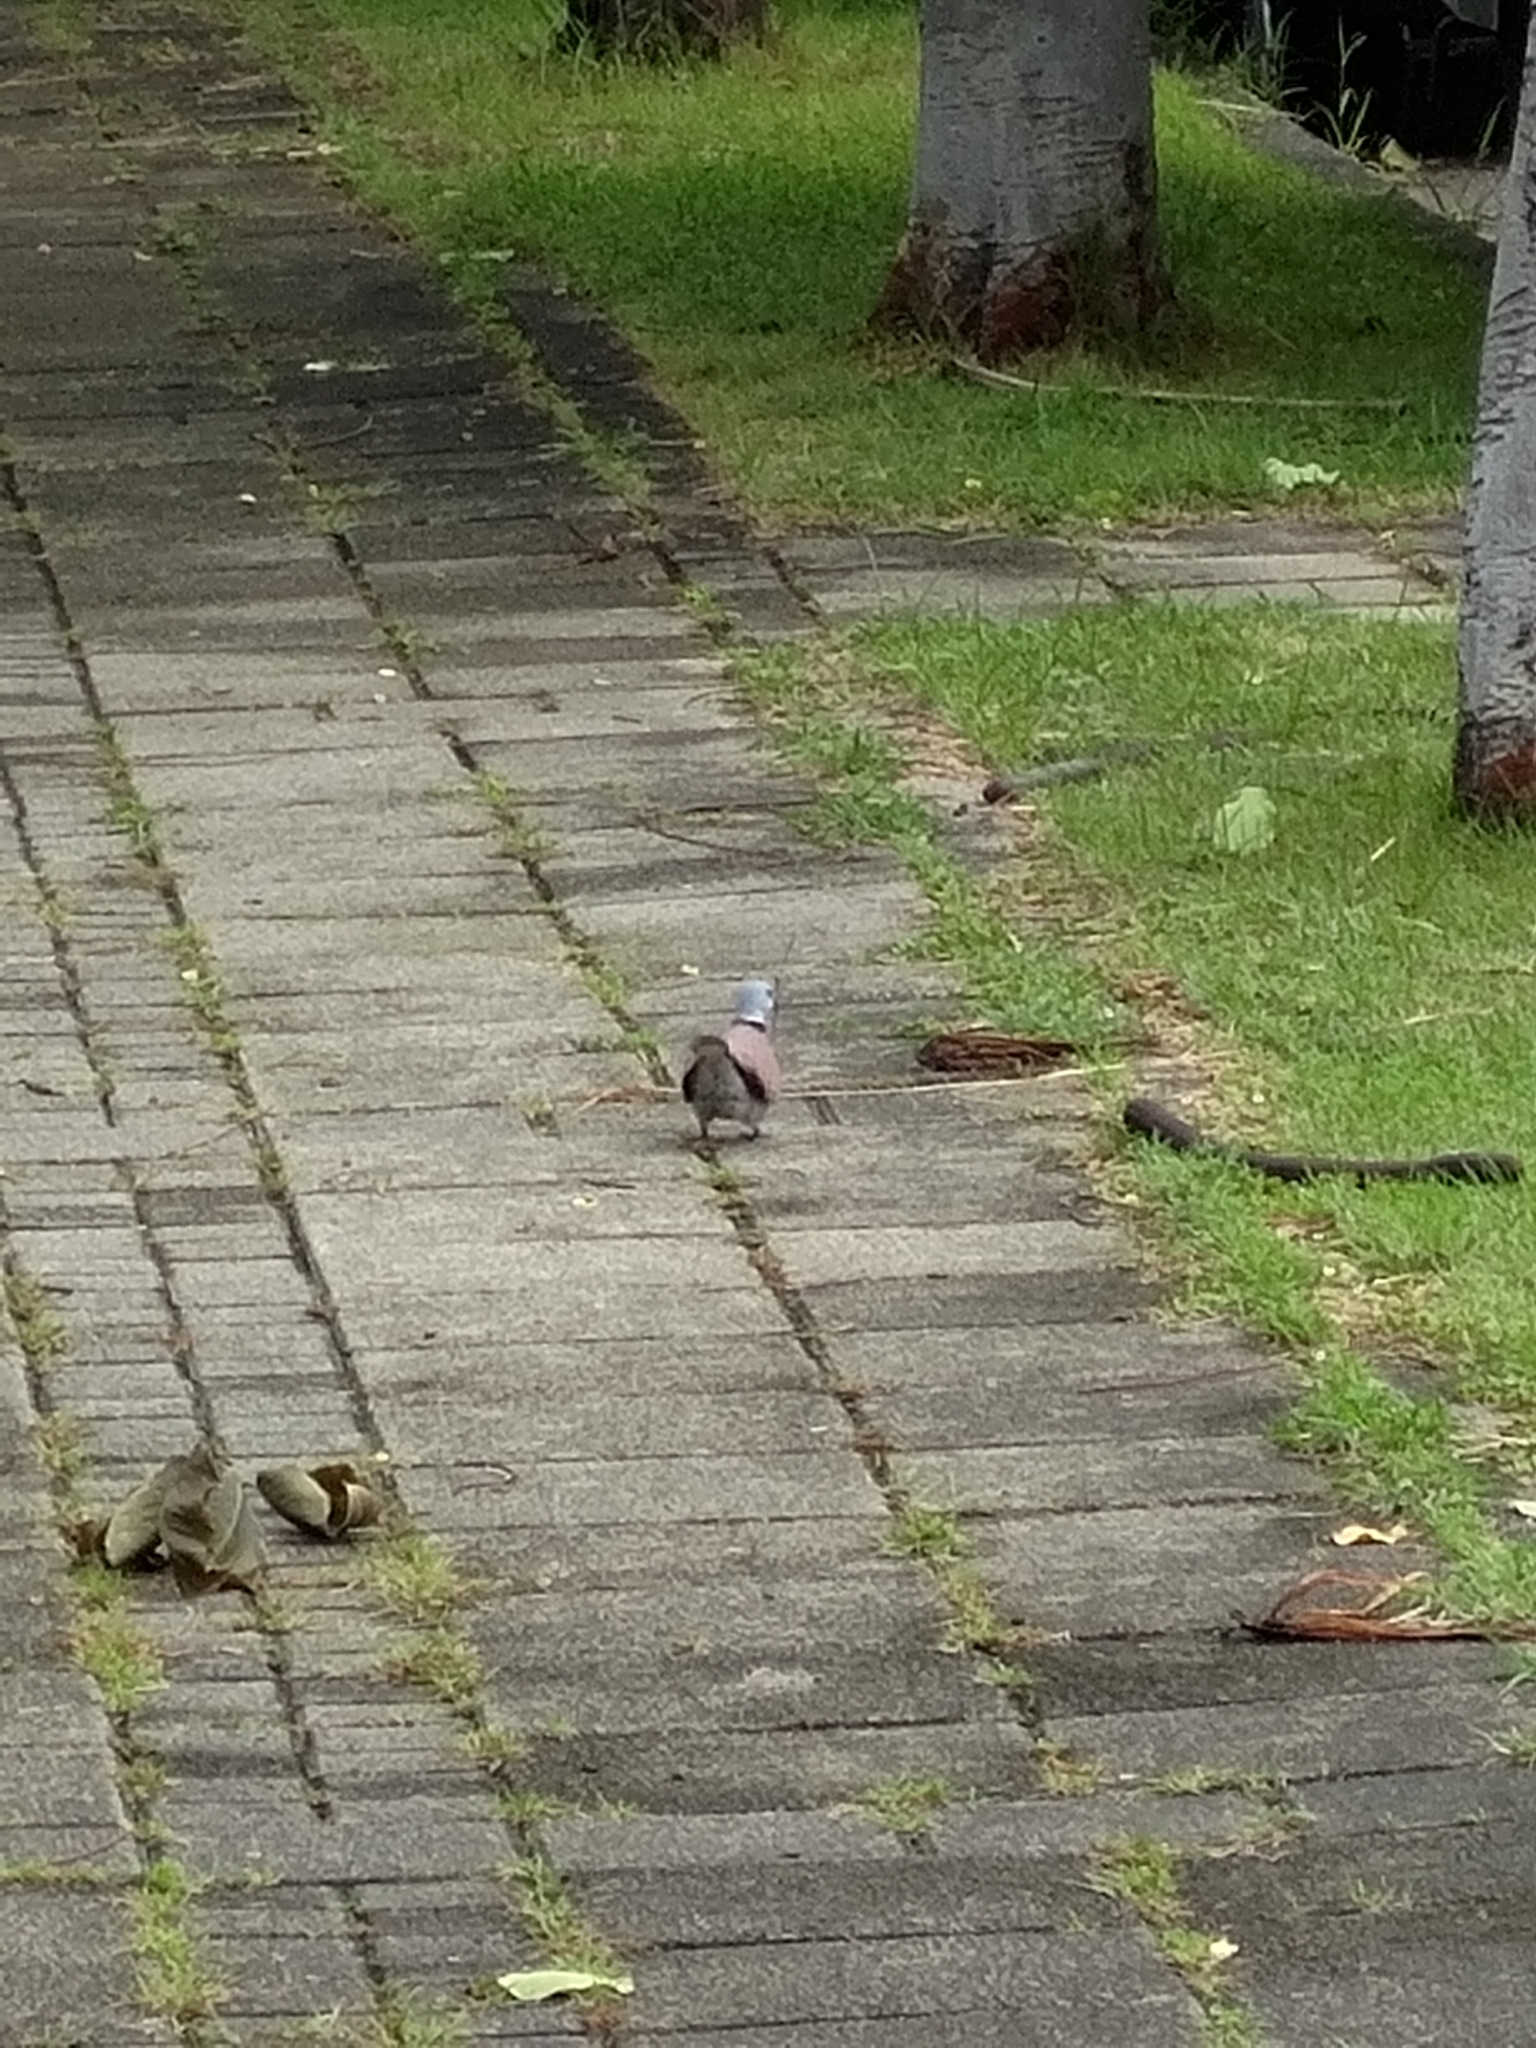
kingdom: Animalia
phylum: Chordata
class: Aves
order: Columbiformes
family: Columbidae
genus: Streptopelia
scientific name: Streptopelia tranquebarica
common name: Red turtle dove
